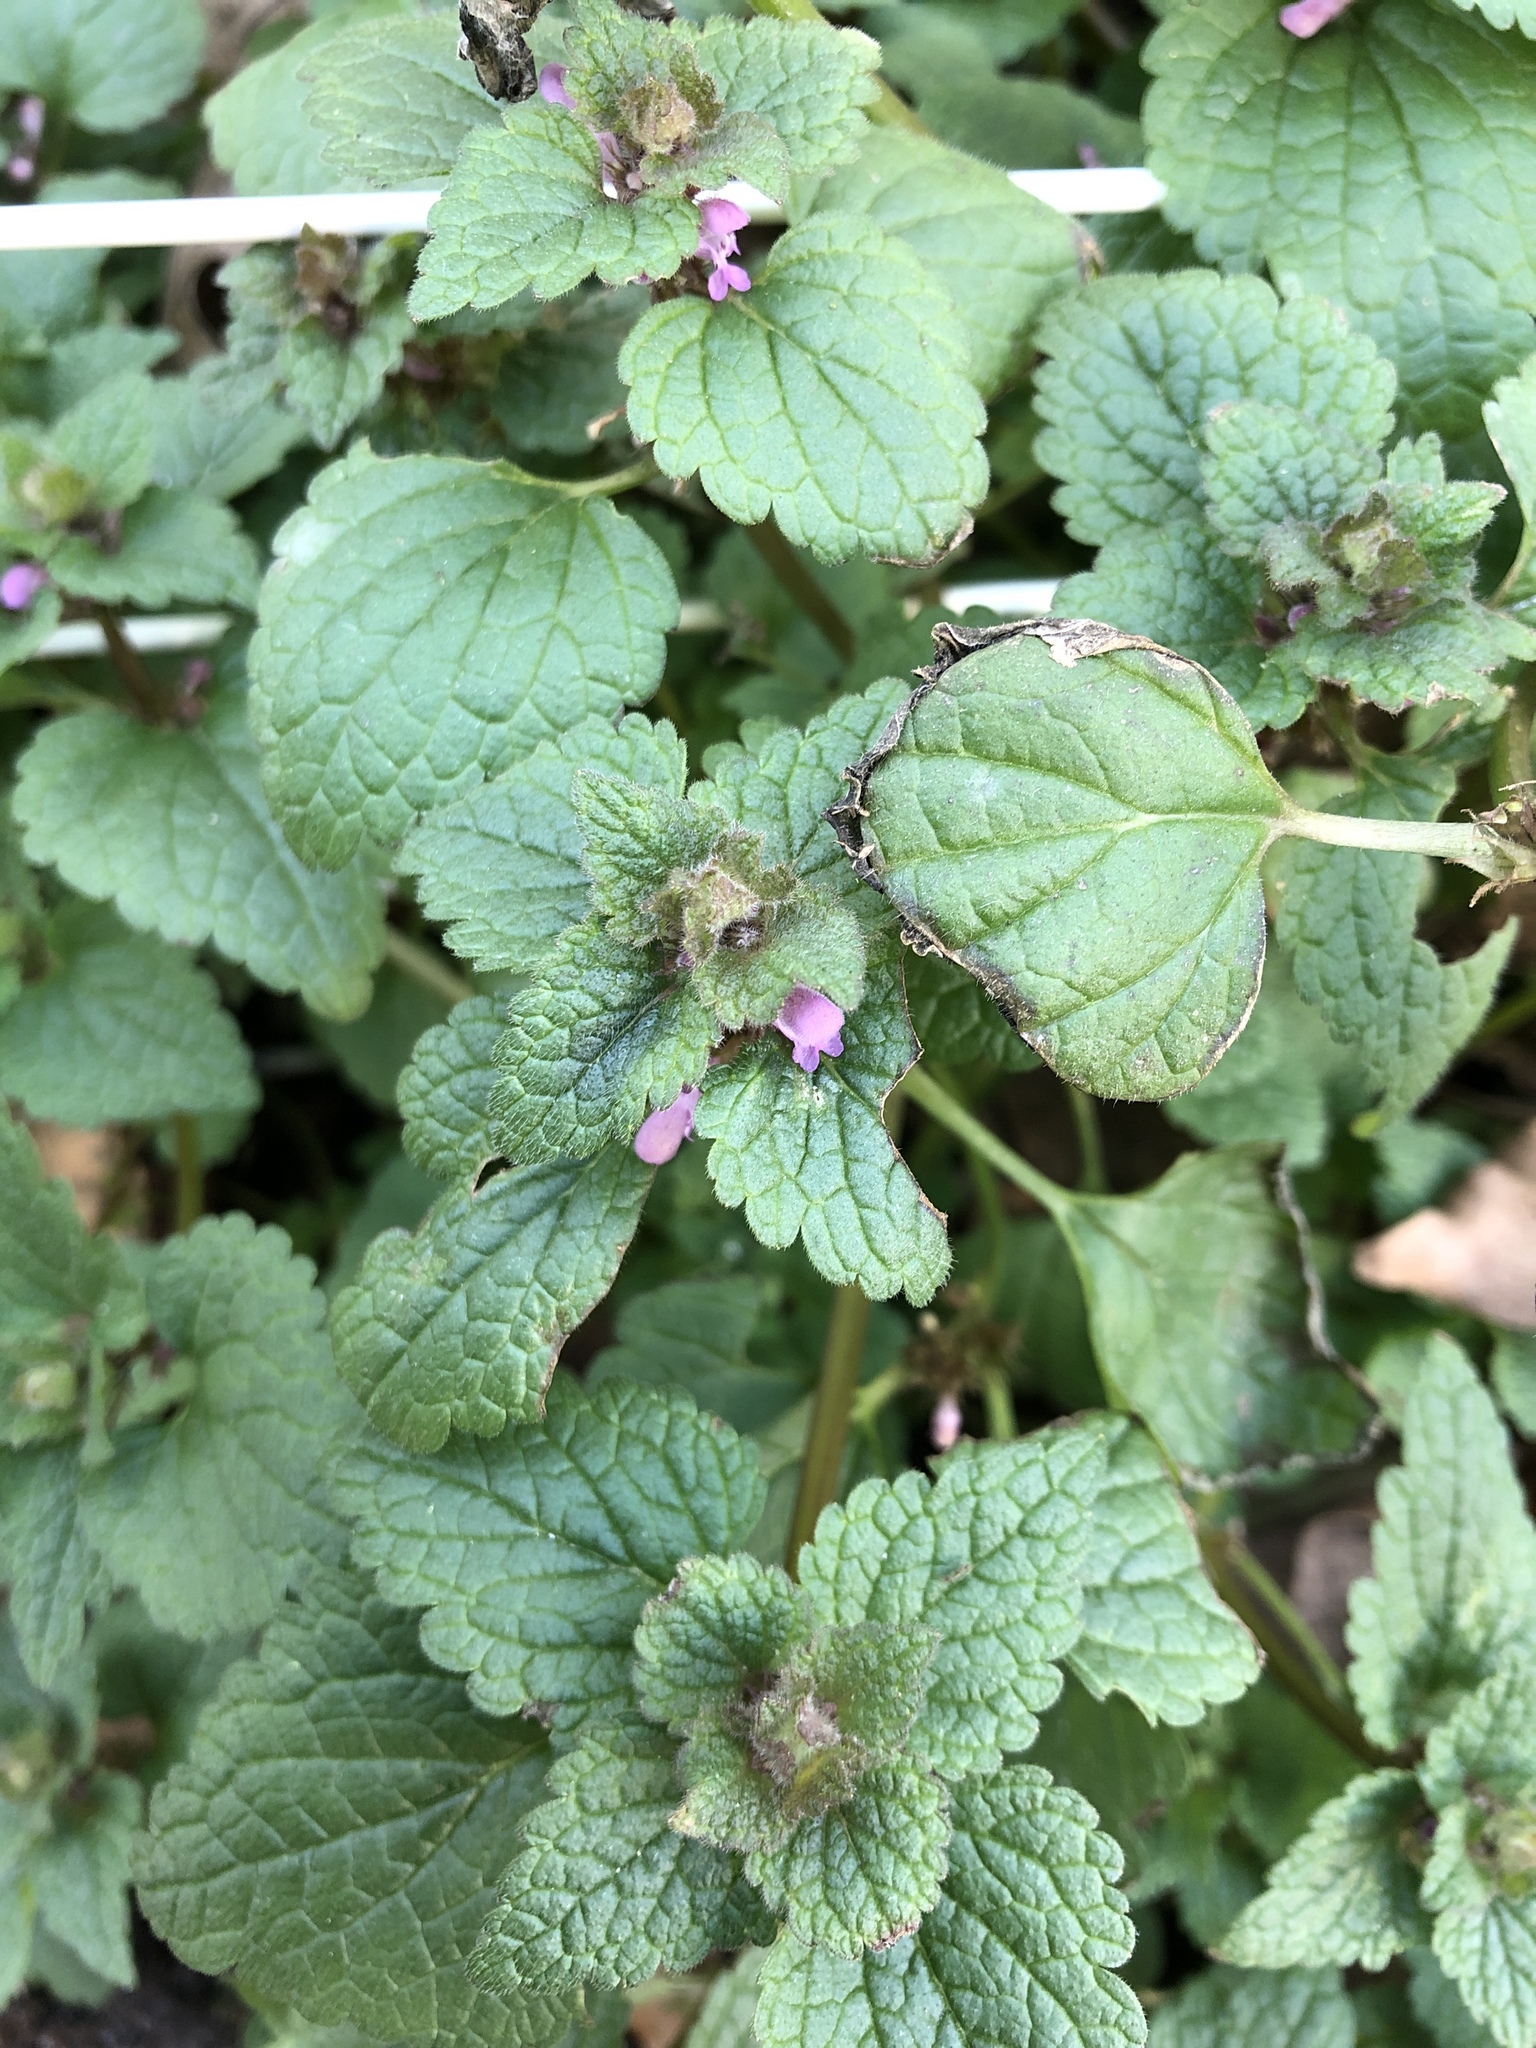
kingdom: Plantae
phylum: Tracheophyta
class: Magnoliopsida
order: Lamiales
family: Lamiaceae
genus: Lamium
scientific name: Lamium purpureum
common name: Red dead-nettle
